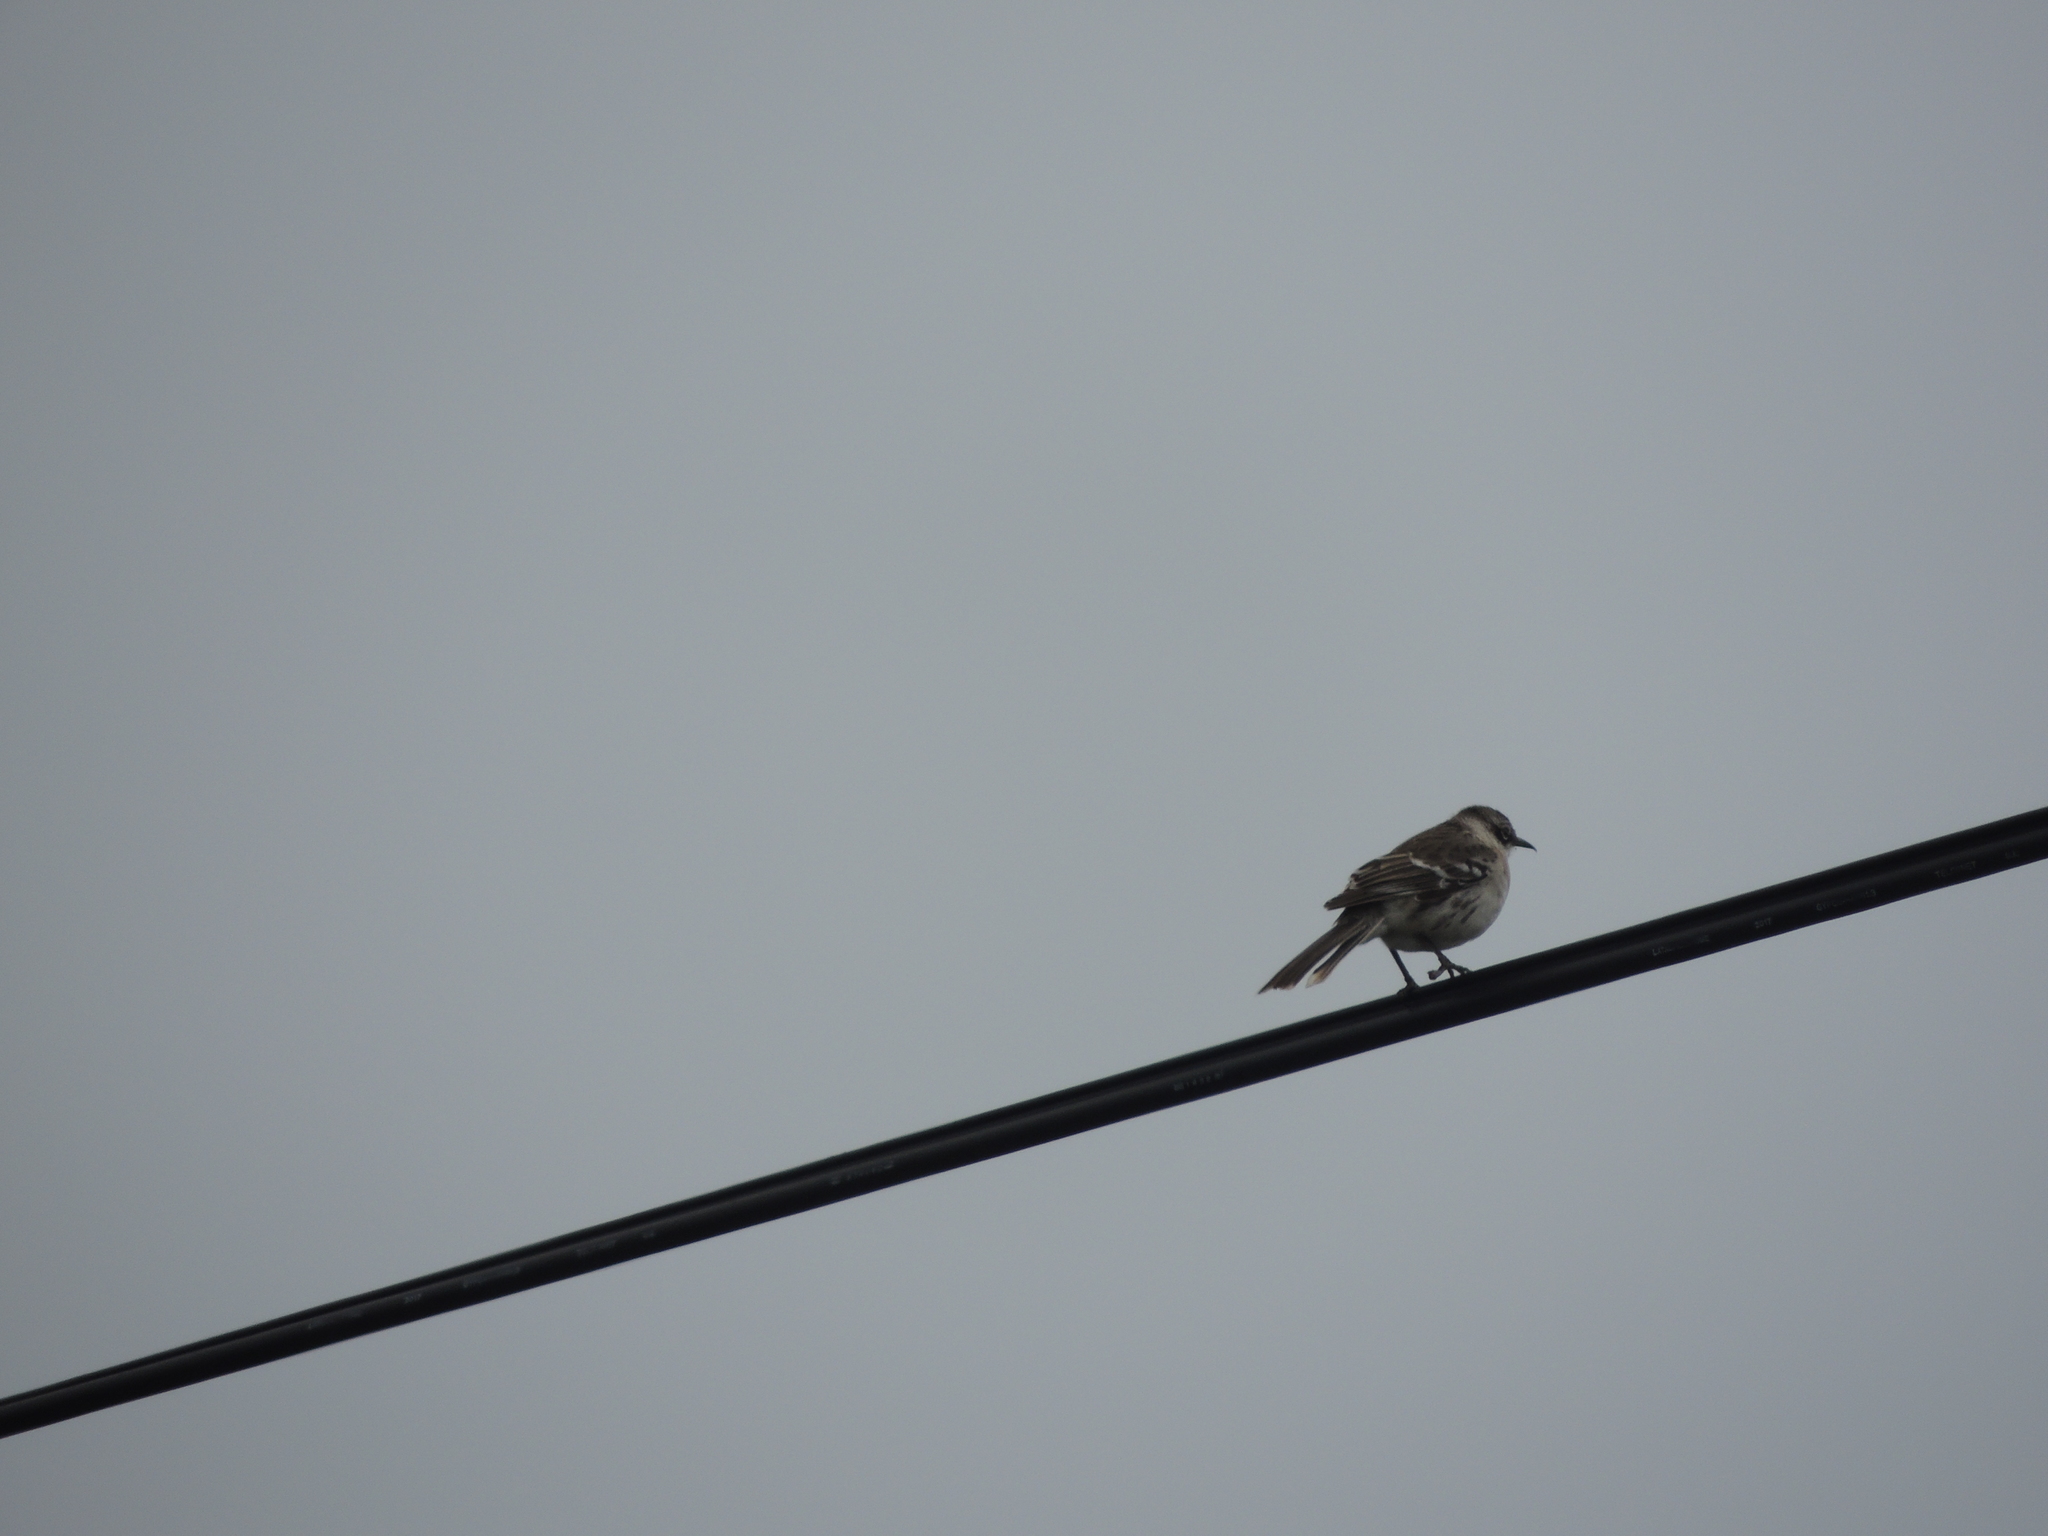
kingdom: Animalia
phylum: Chordata
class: Aves
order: Passeriformes
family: Mimidae
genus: Mimus
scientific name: Mimus parvulus
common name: Galapagos mockingbird
